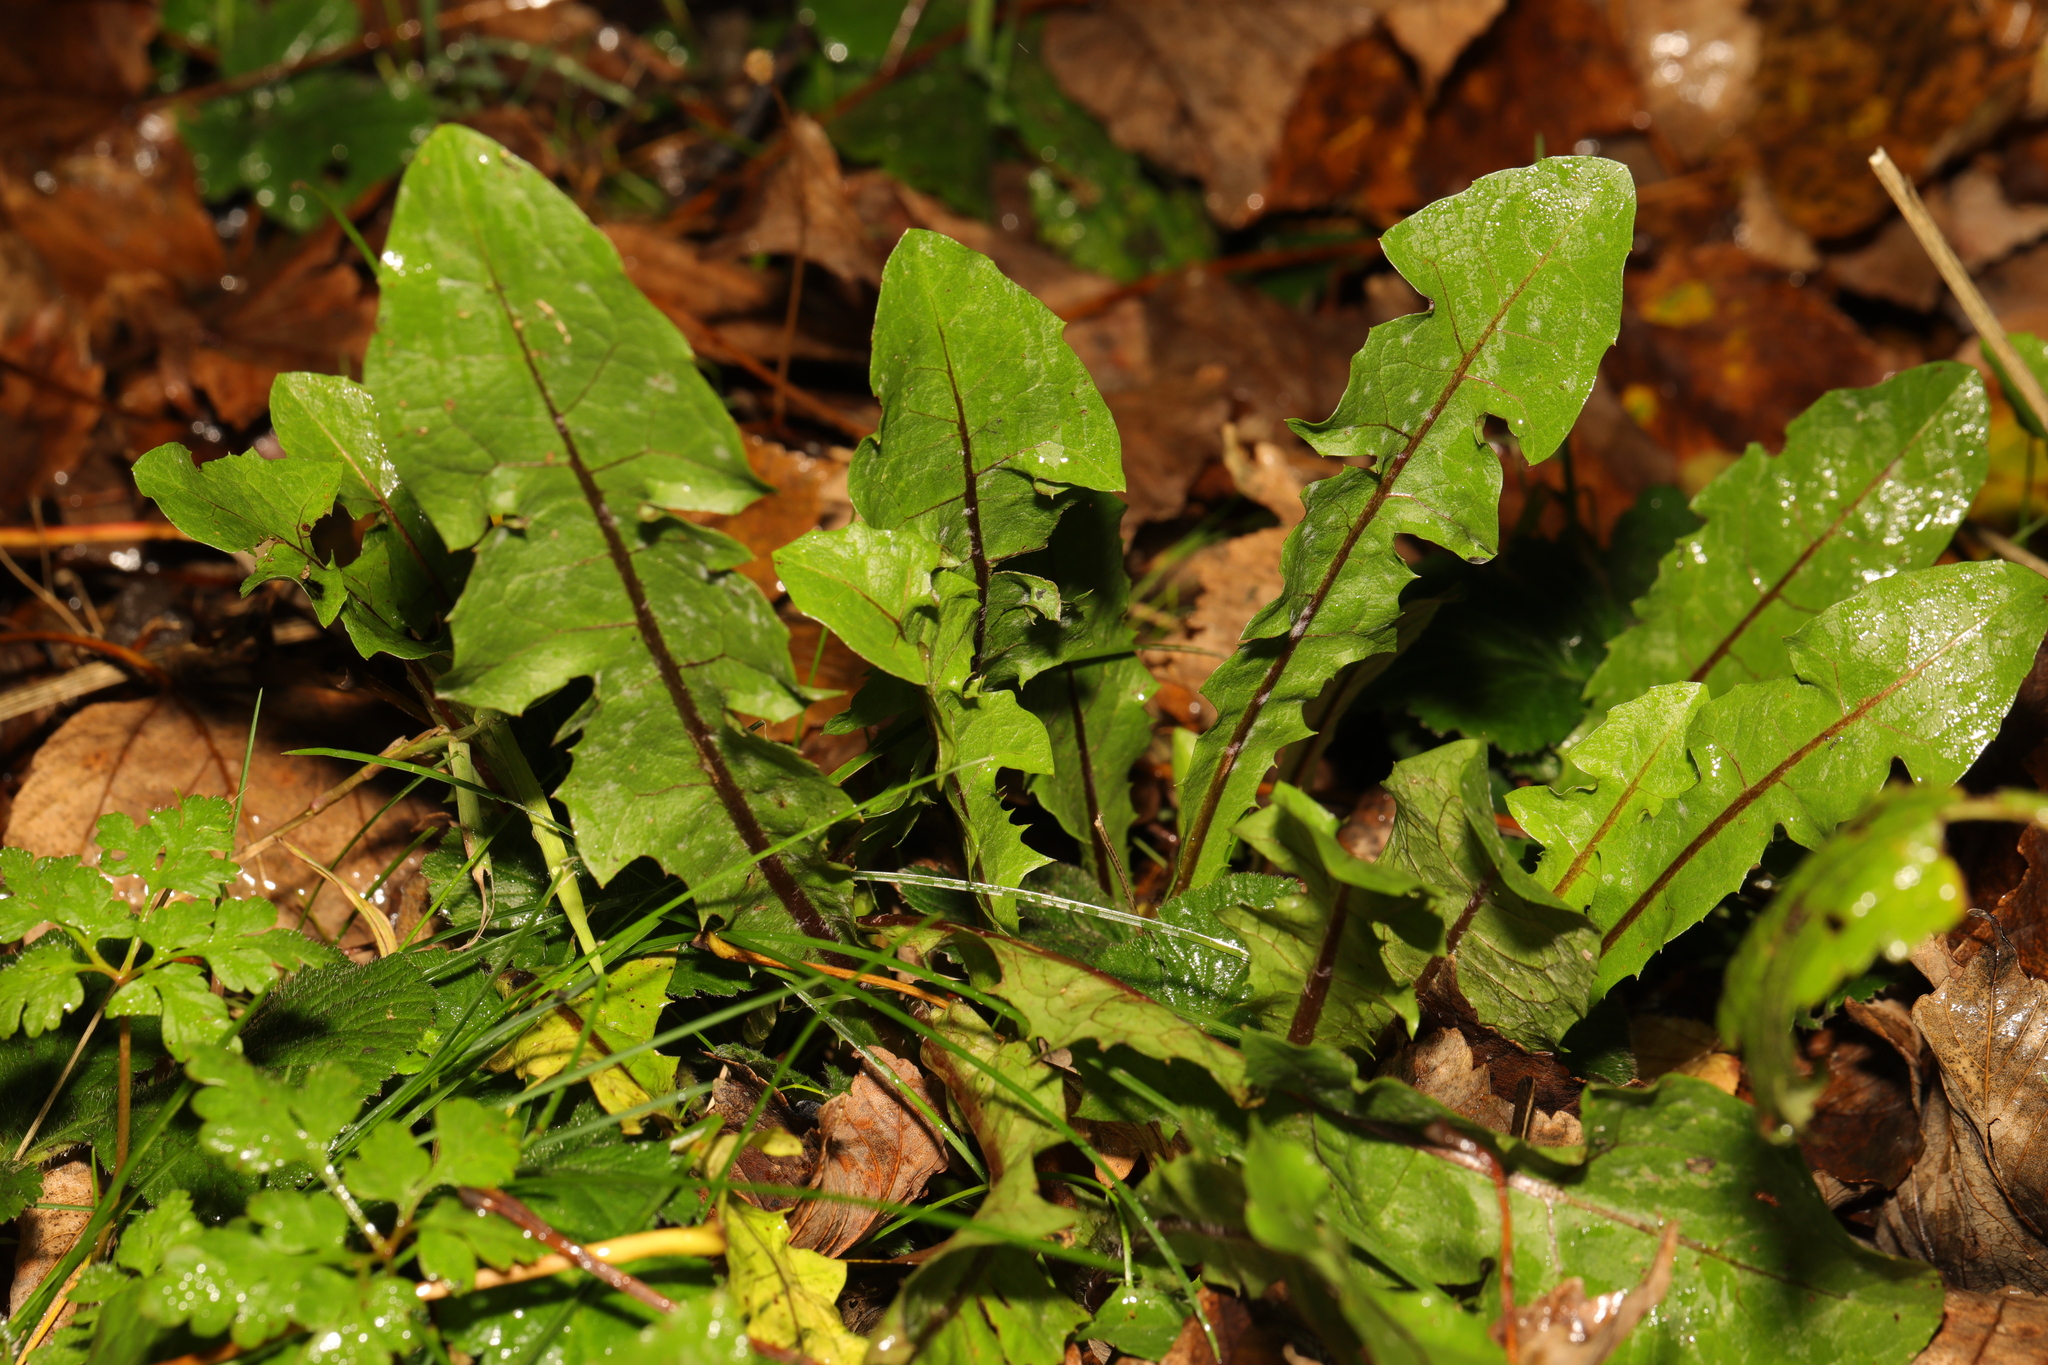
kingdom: Plantae
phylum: Tracheophyta
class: Magnoliopsida
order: Asterales
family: Asteraceae
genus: Taraxacum
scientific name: Taraxacum officinale
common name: Common dandelion
